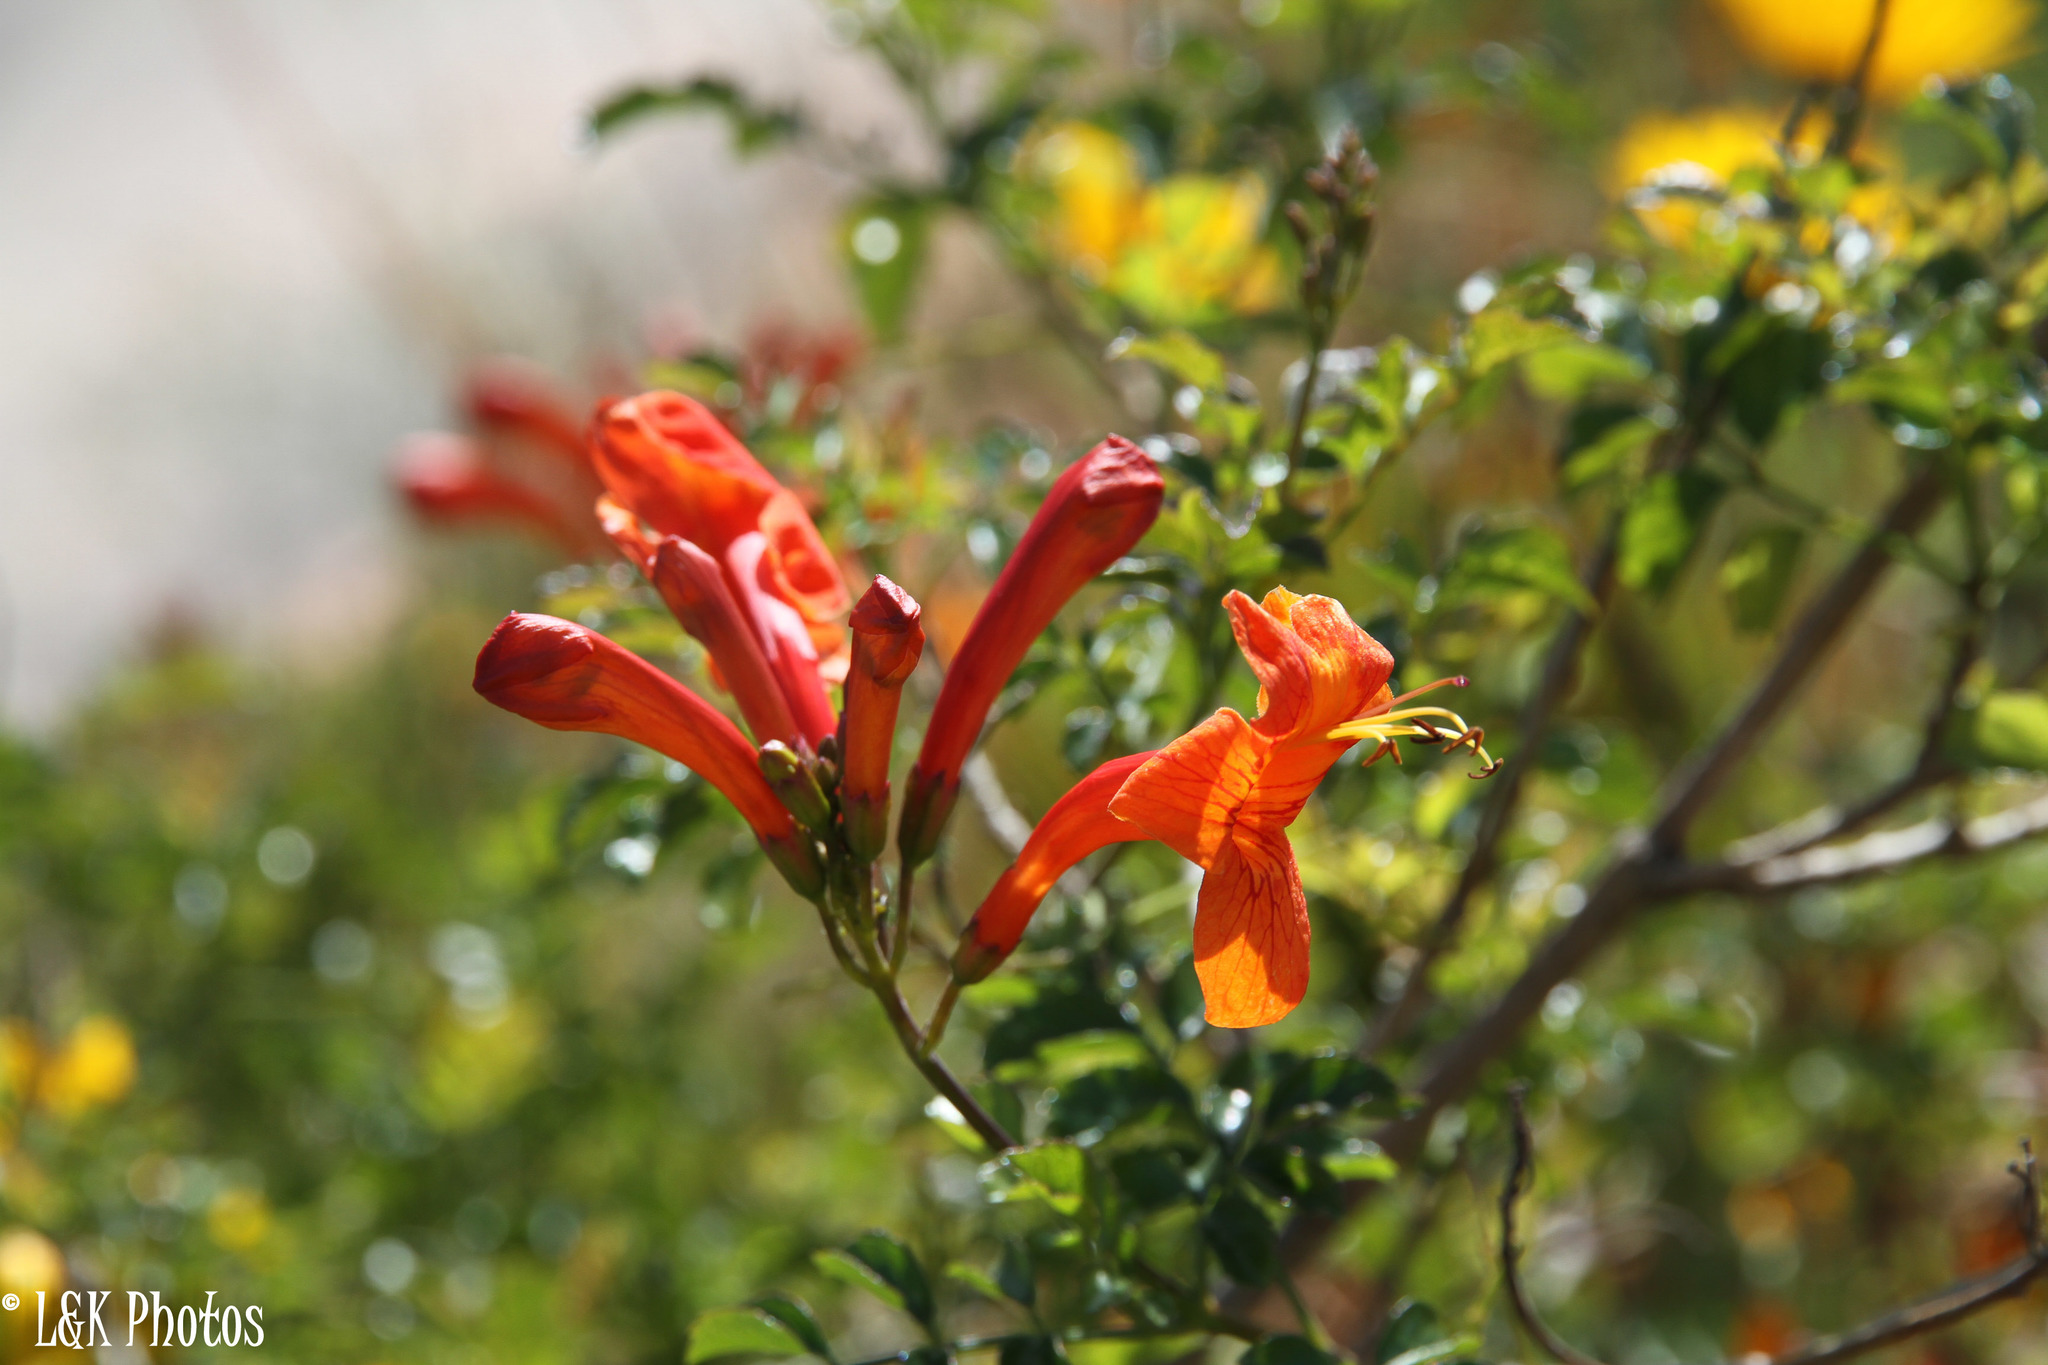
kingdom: Plantae
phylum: Tracheophyta
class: Magnoliopsida
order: Lamiales
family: Bignoniaceae
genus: Tecomaria
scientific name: Tecomaria capensis
